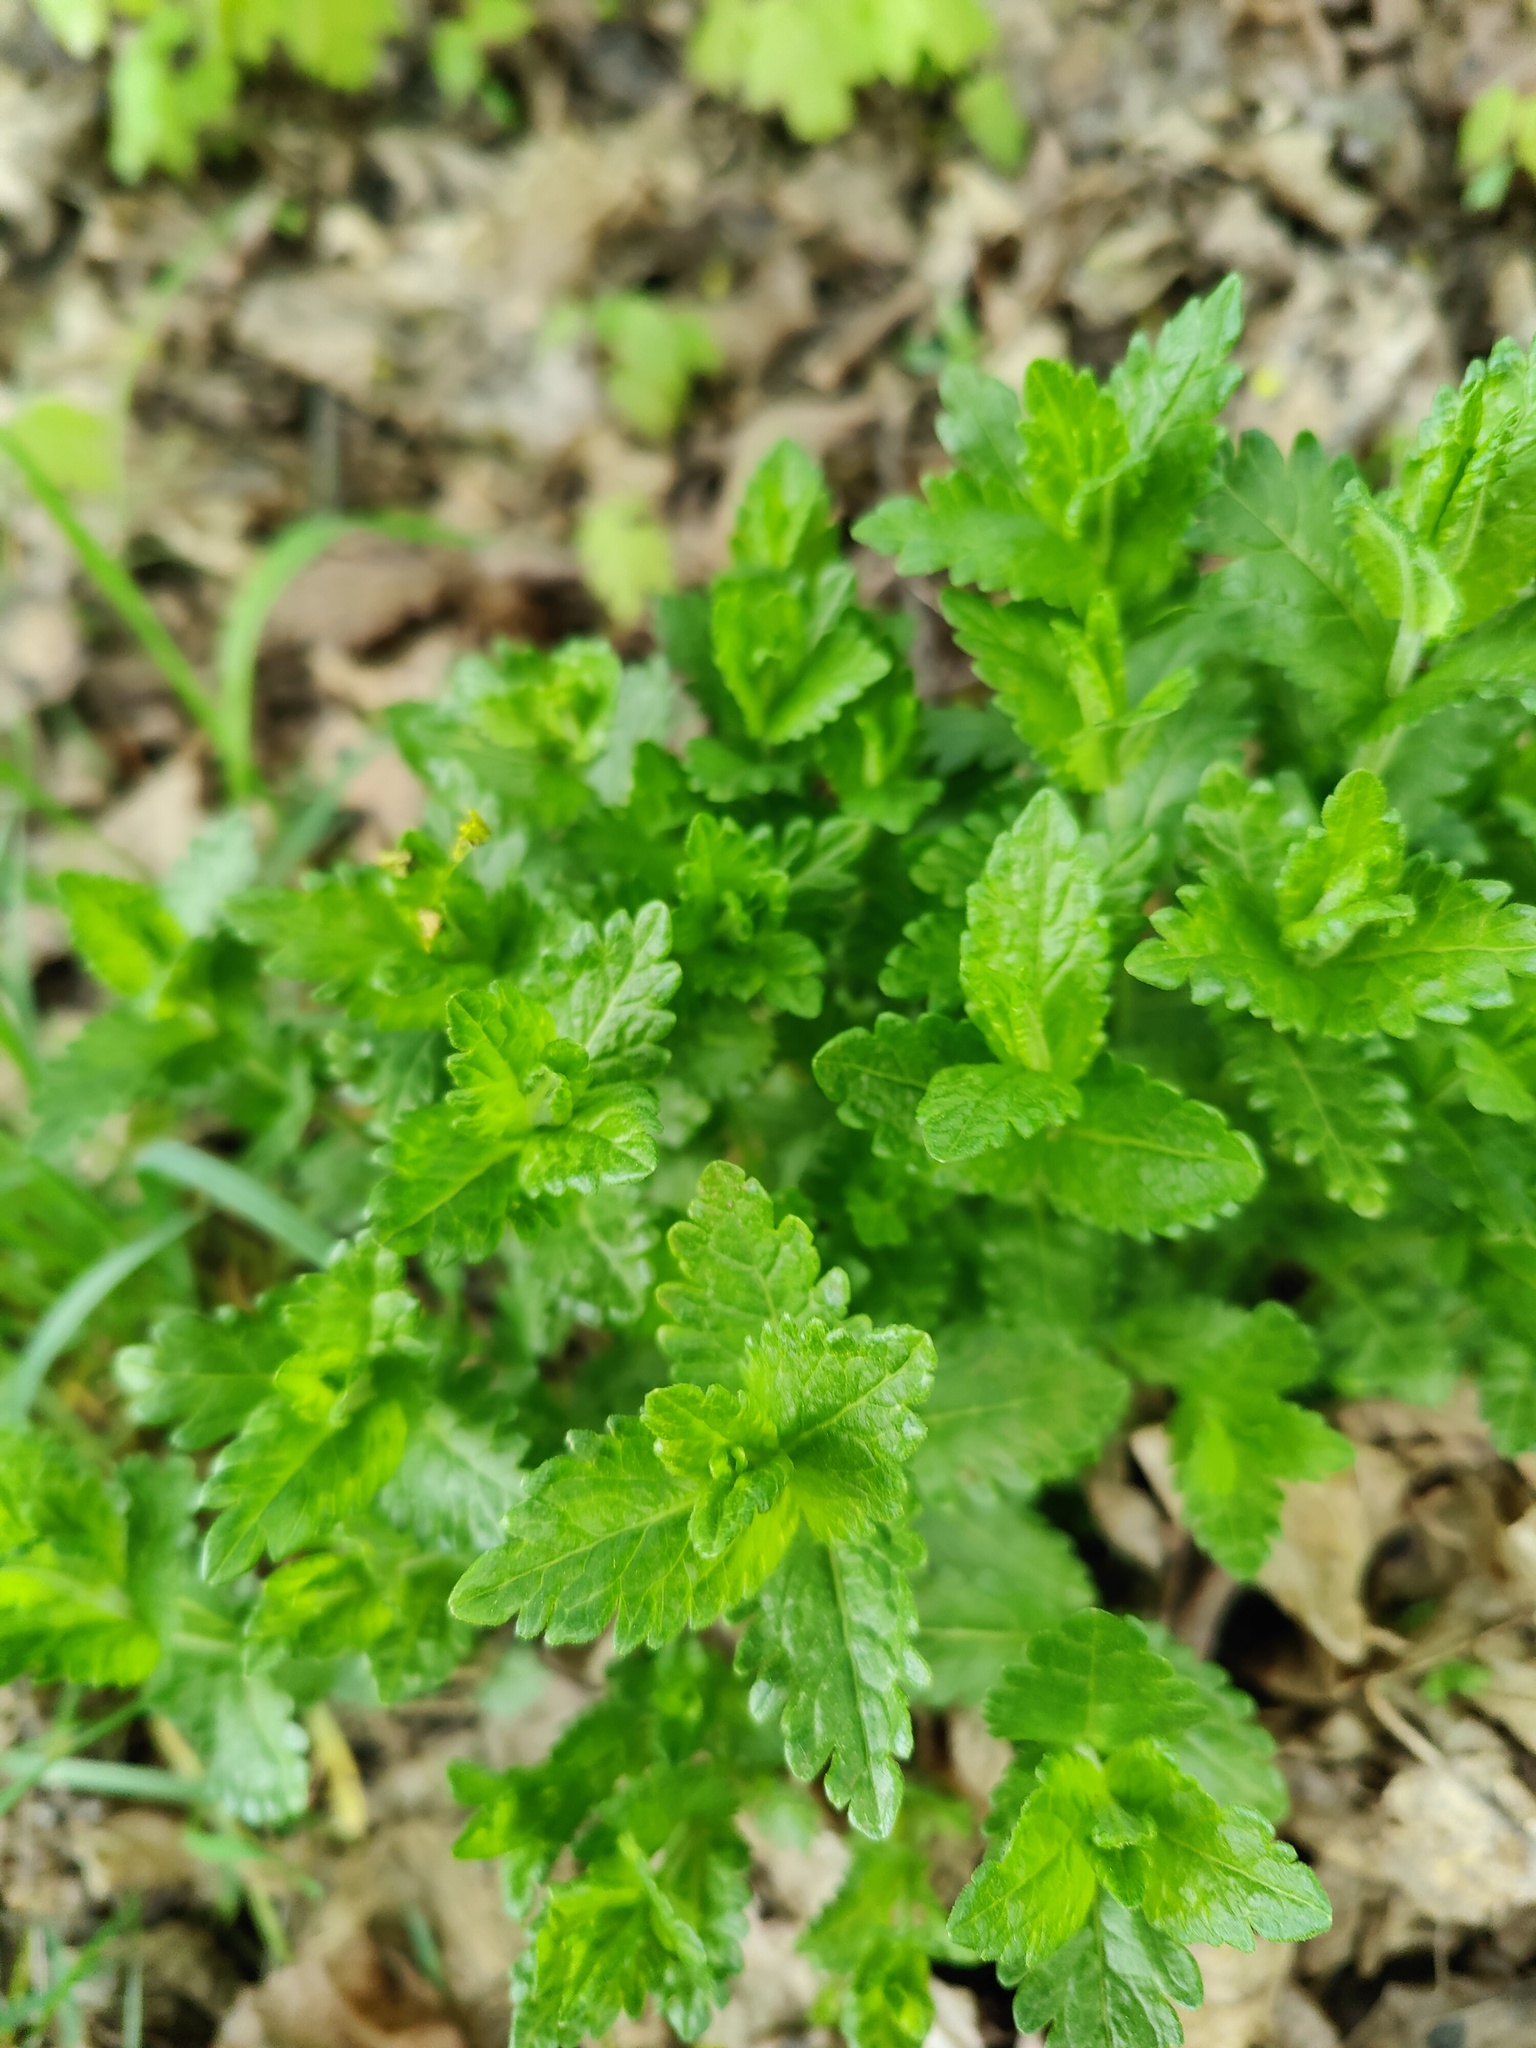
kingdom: Plantae
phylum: Tracheophyta
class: Magnoliopsida
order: Lamiales
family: Plantaginaceae
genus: Veronica
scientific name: Veronica teucrium
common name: Large speedwell
